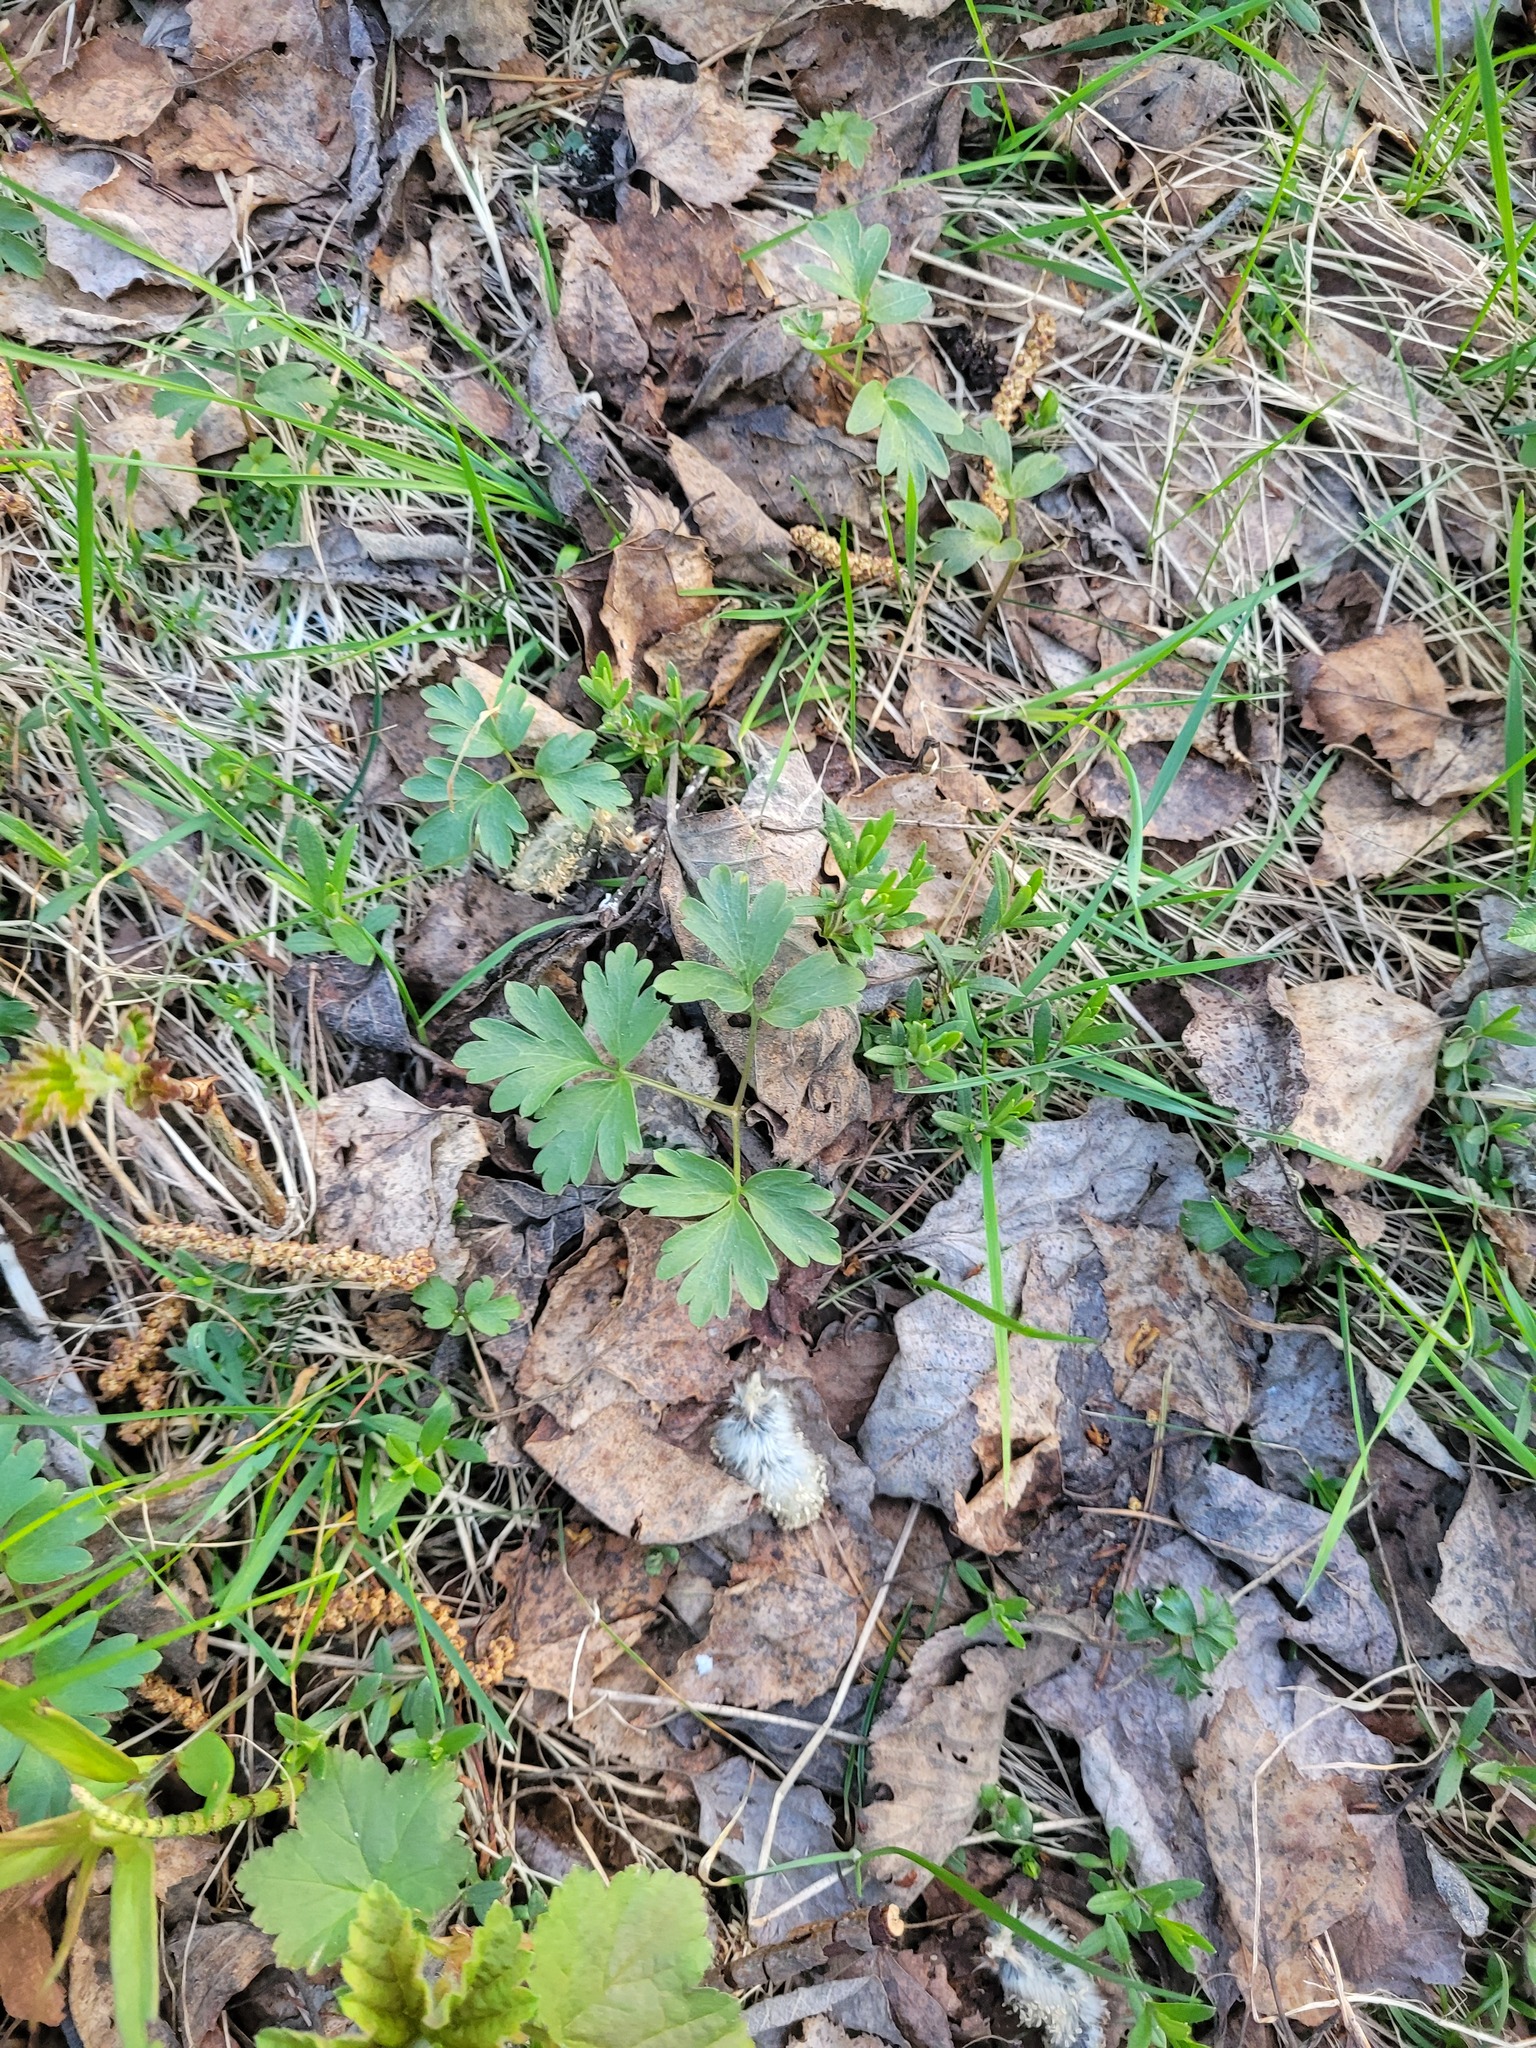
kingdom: Plantae
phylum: Tracheophyta
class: Magnoliopsida
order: Dipsacales
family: Viburnaceae
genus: Adoxa
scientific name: Adoxa moschatellina
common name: Moschatel
